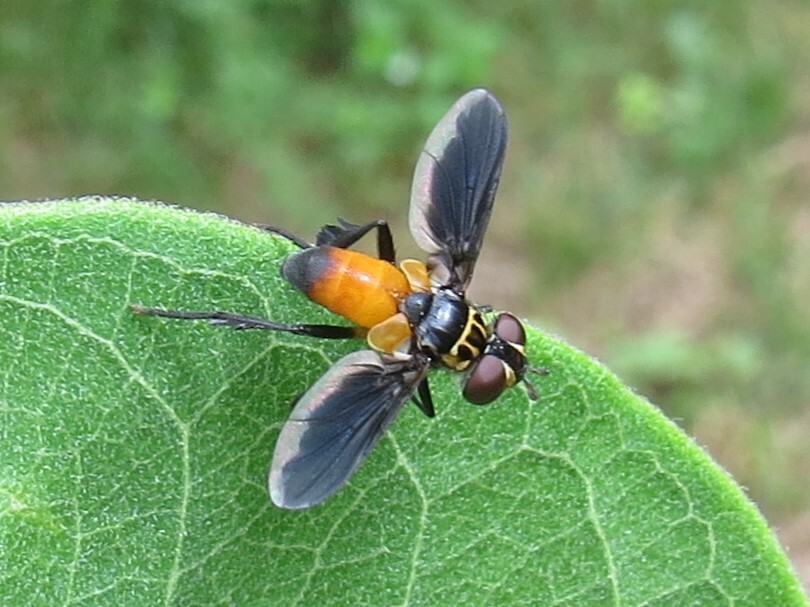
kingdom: Animalia
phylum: Arthropoda
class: Insecta
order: Diptera
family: Tachinidae
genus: Trichopoda
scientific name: Trichopoda pennipes
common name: Tachinid fly
